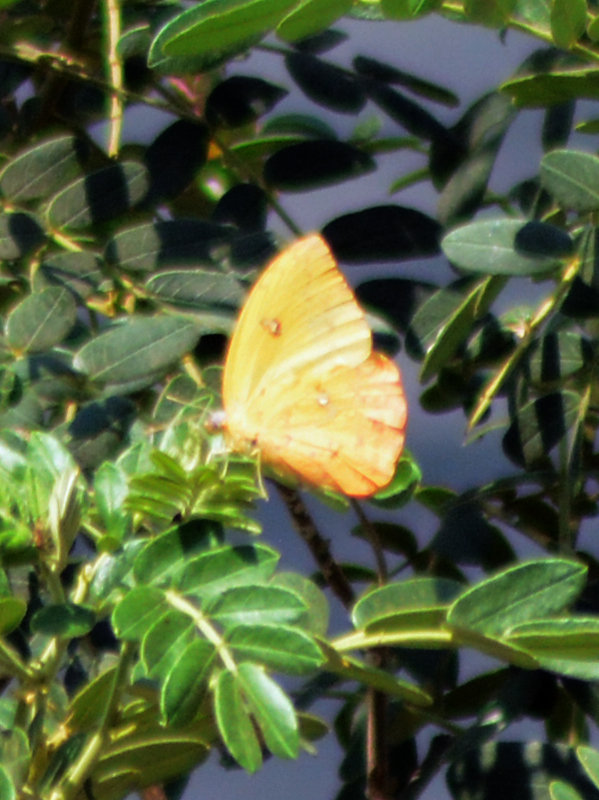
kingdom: Animalia
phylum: Arthropoda
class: Insecta
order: Lepidoptera
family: Pieridae
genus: Phoebis
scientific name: Phoebis philea
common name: Orange-barred giant sulphur
